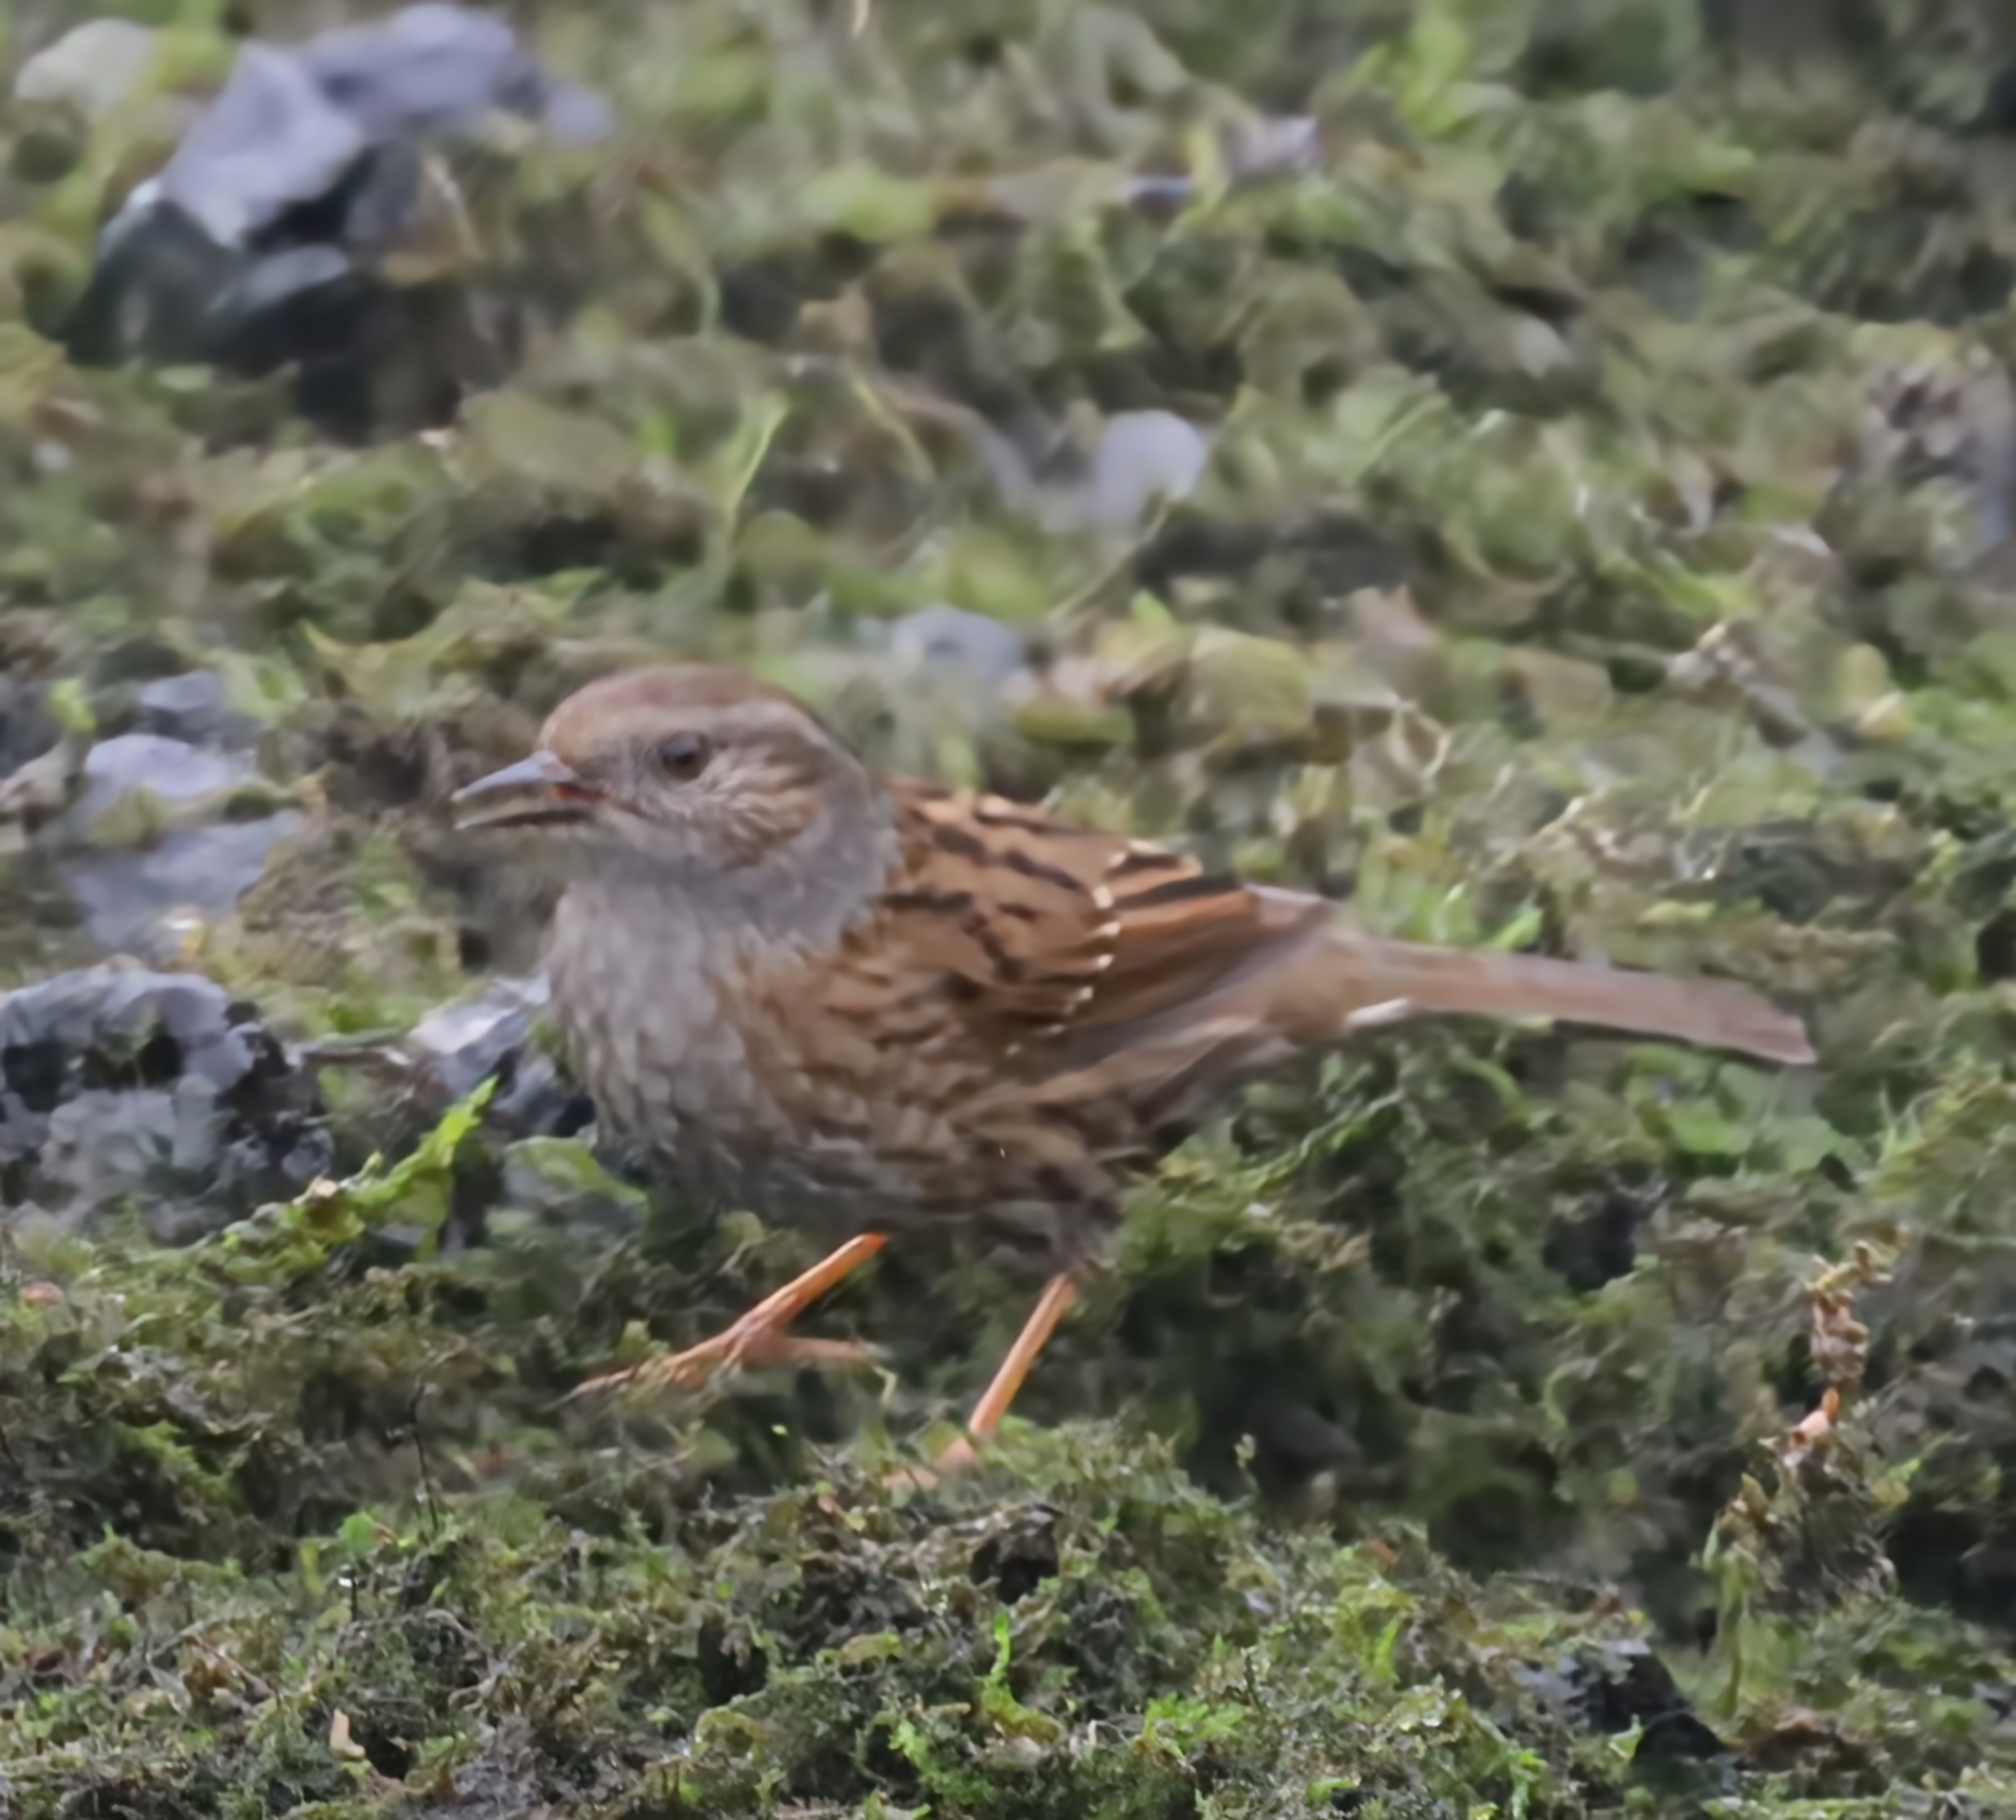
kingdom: Animalia
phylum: Chordata
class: Aves
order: Passeriformes
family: Prunellidae
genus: Prunella
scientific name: Prunella modularis
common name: Dunnock
